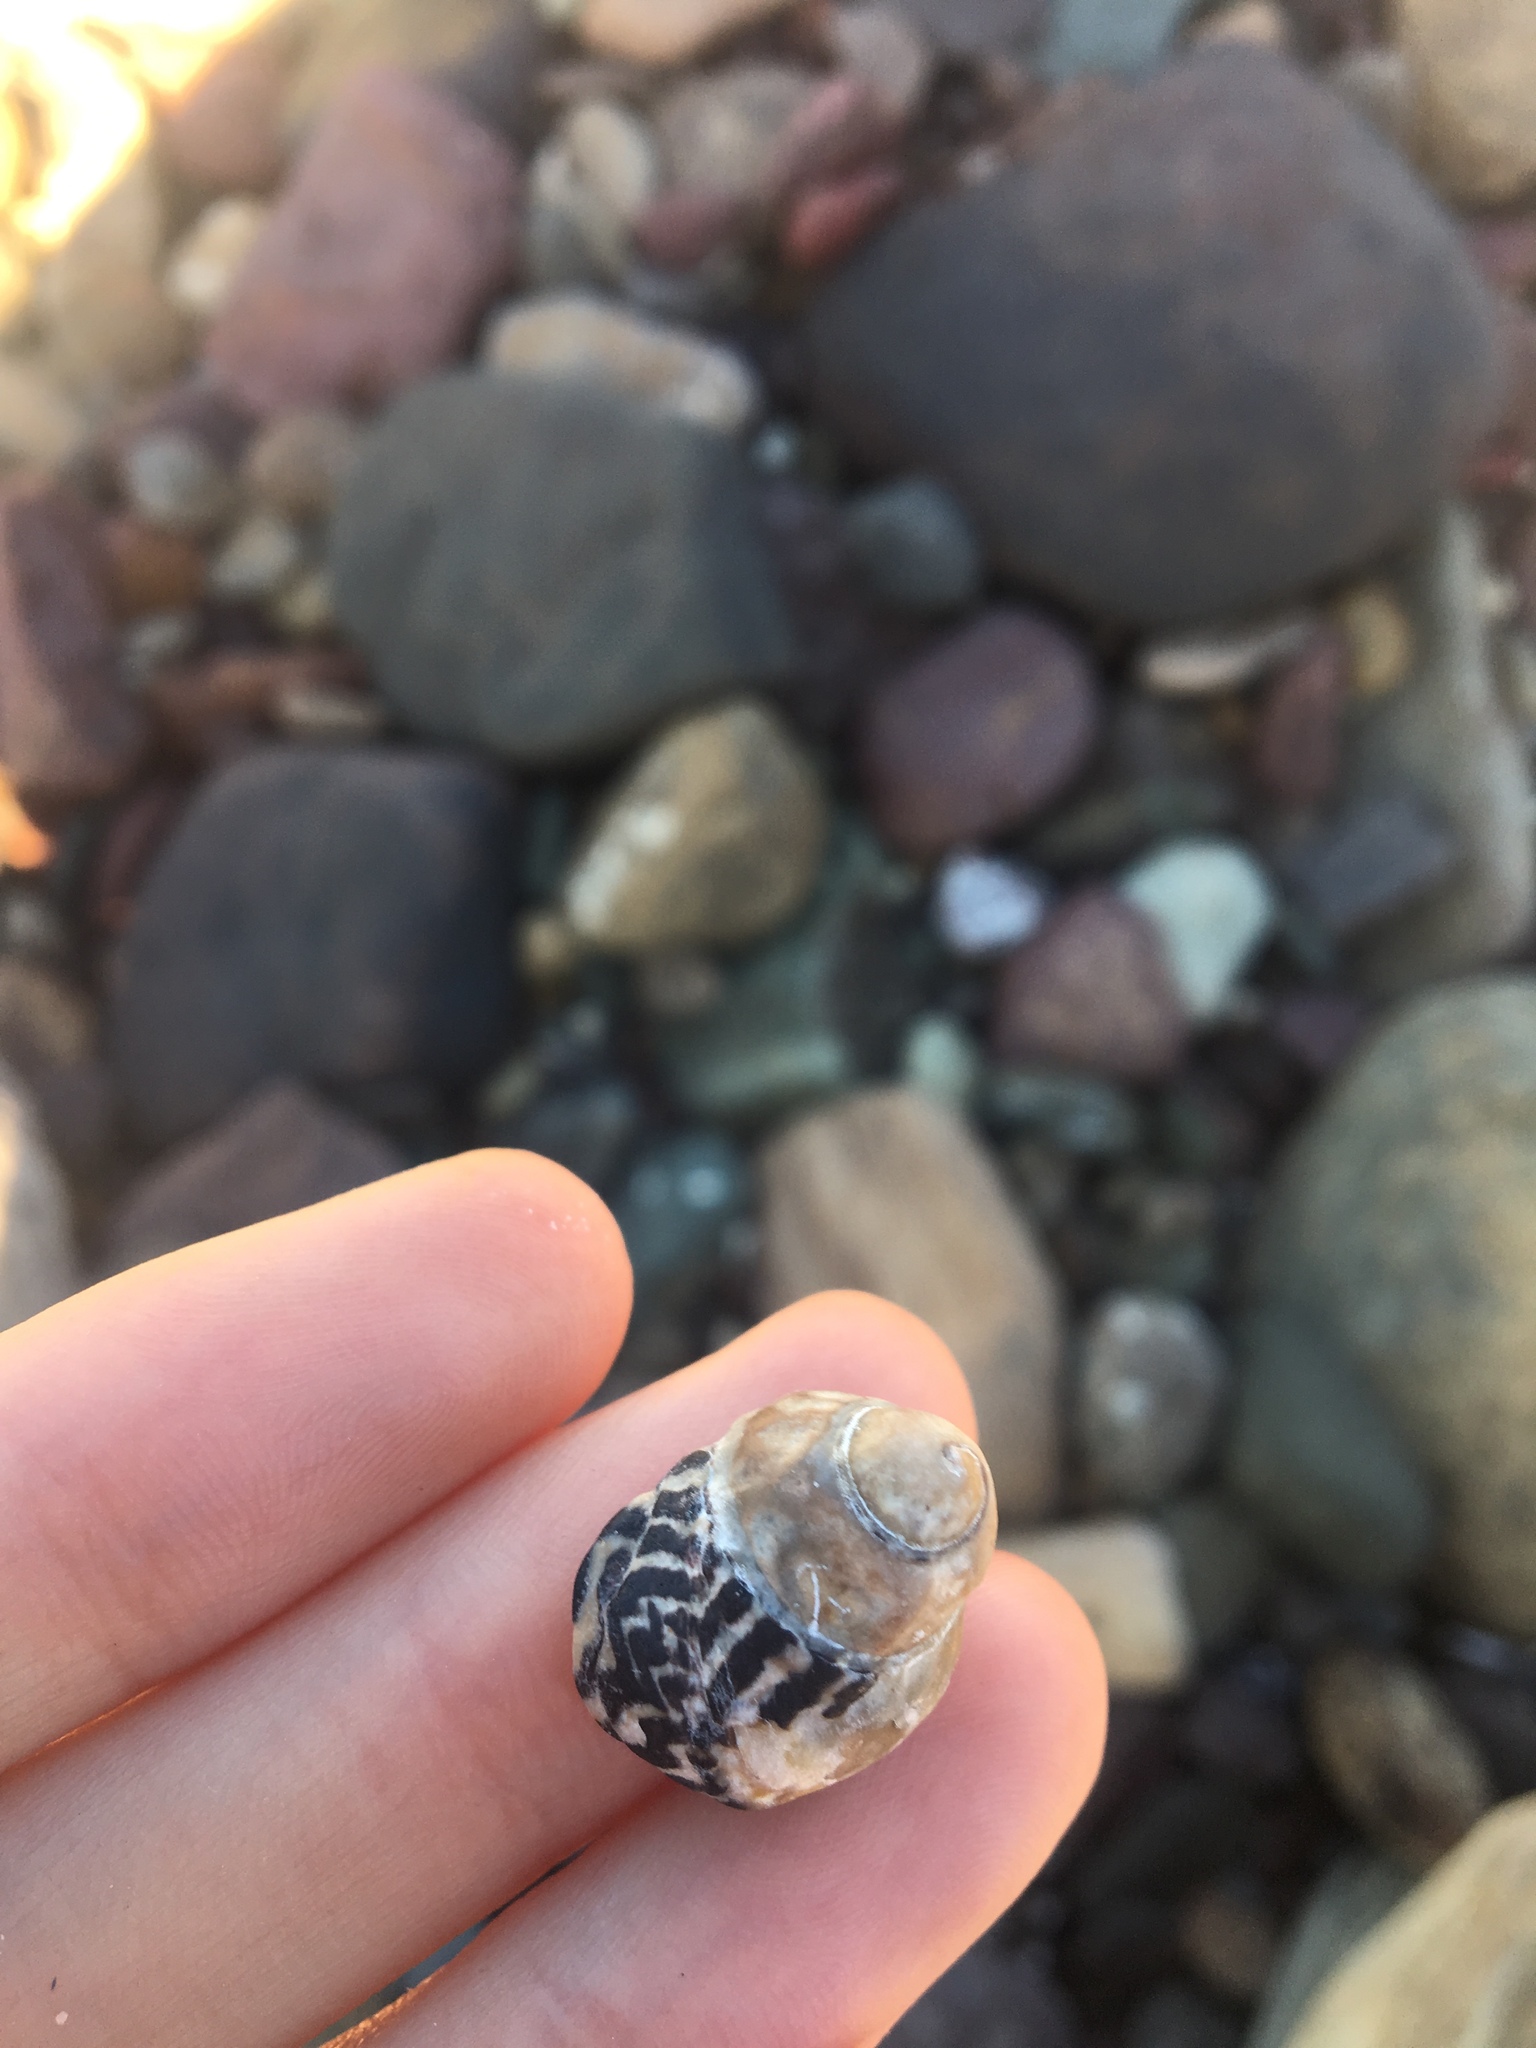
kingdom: Animalia
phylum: Mollusca
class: Gastropoda
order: Trochida
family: Trochidae
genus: Austrocochlea
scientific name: Austrocochlea porcata
